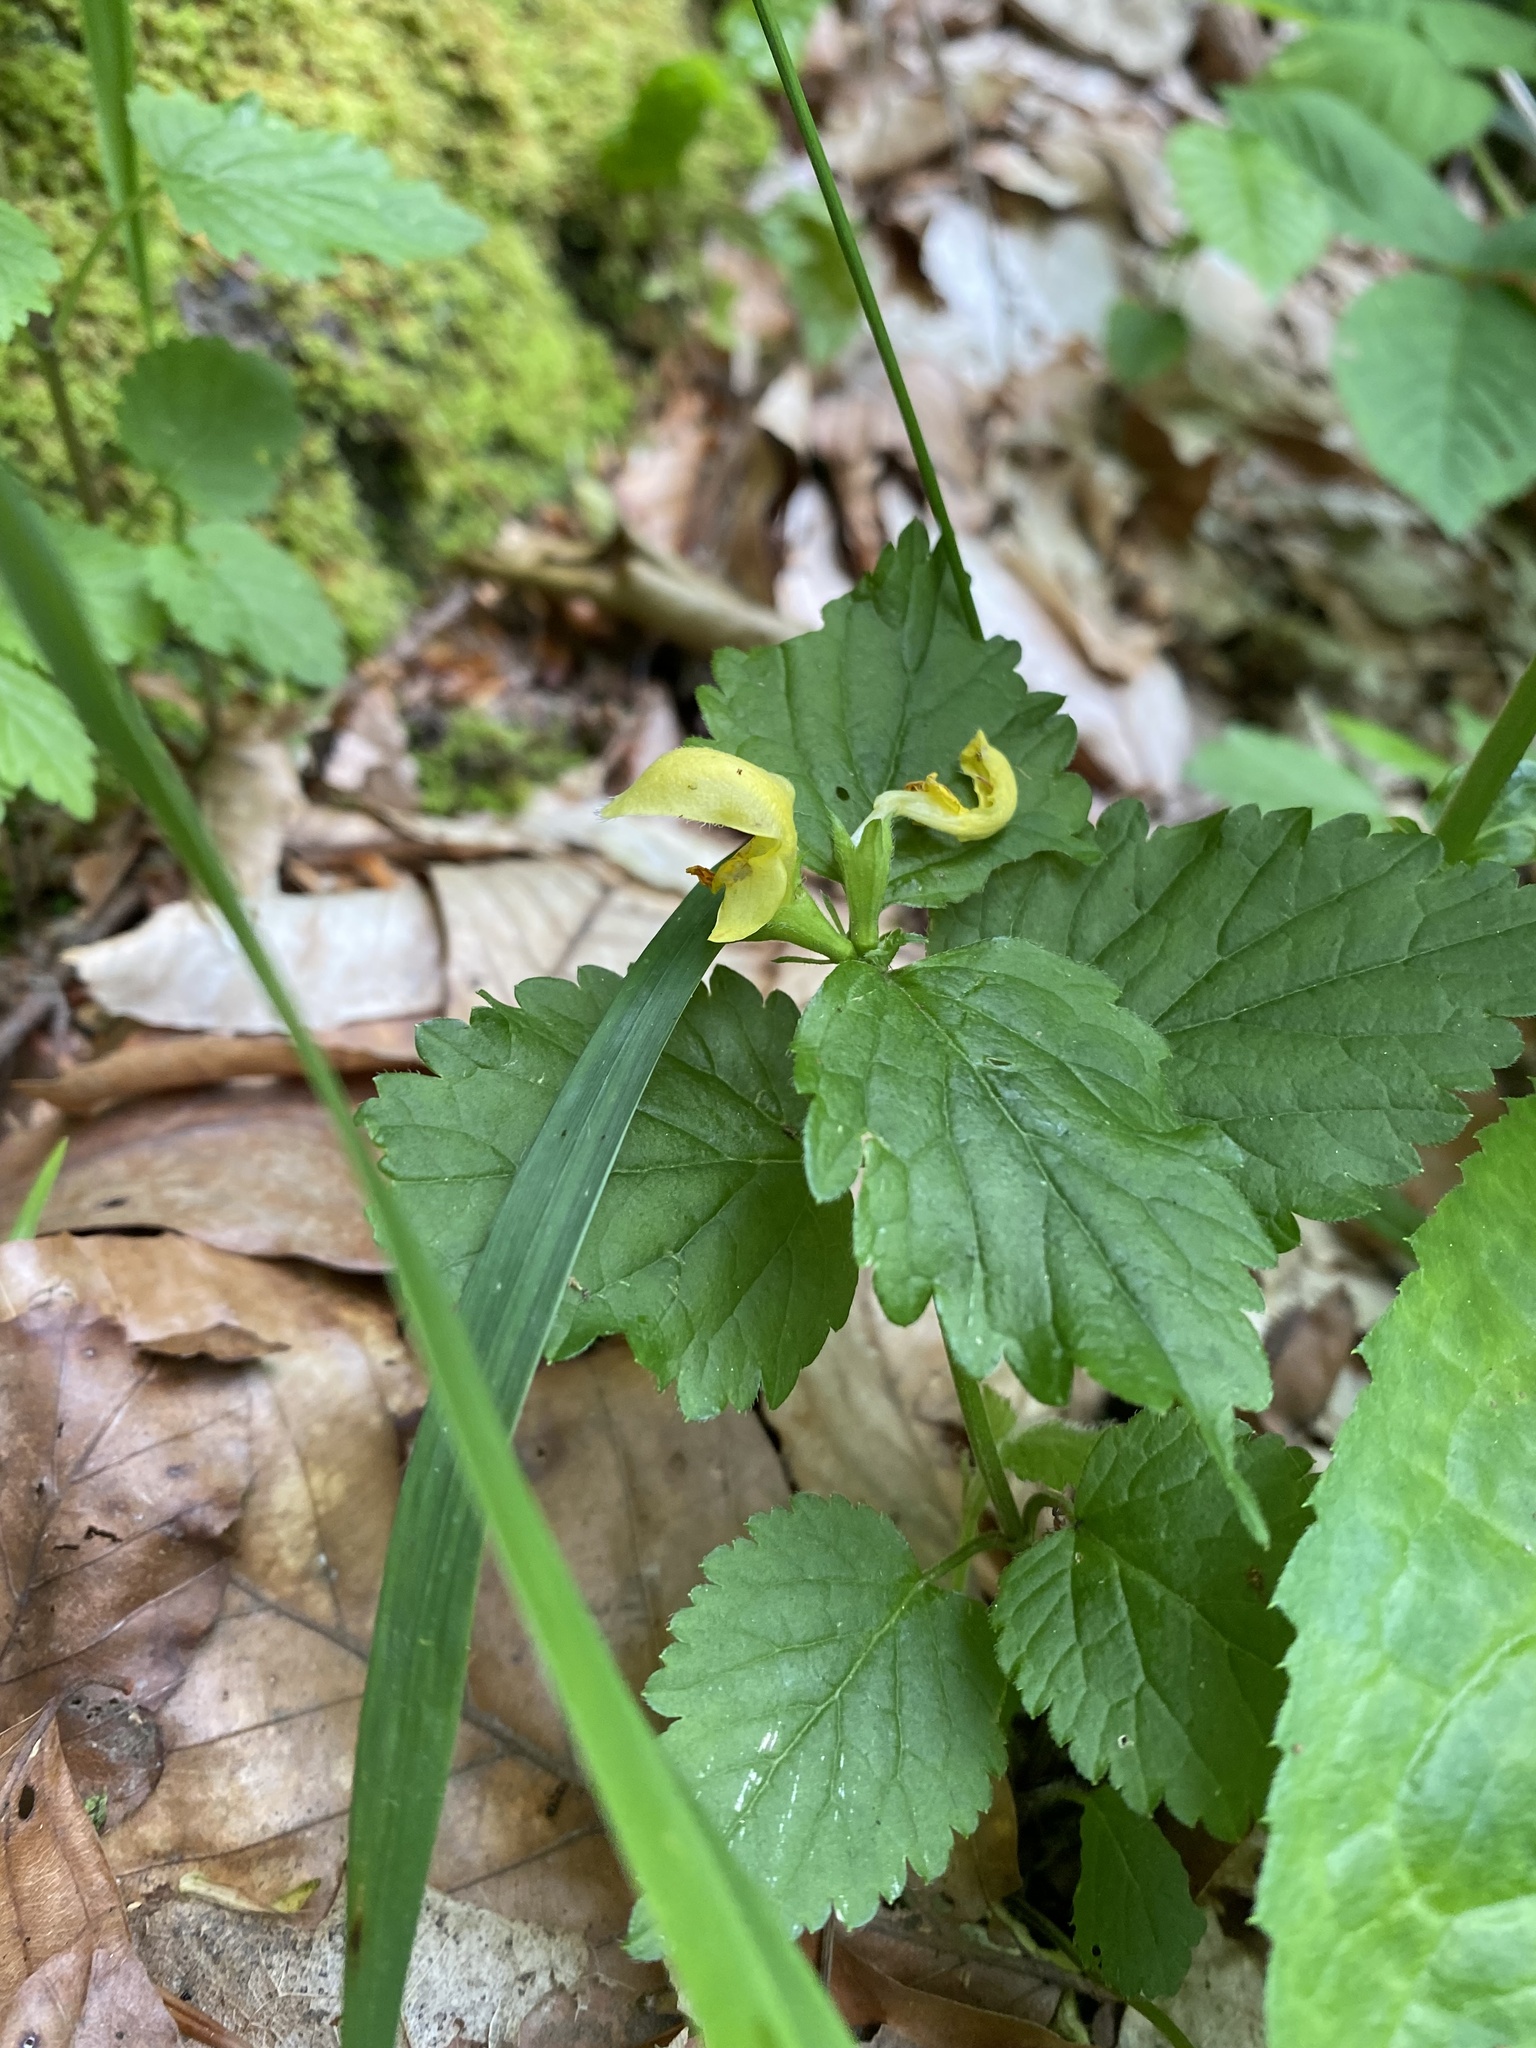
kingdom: Plantae
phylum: Tracheophyta
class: Magnoliopsida
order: Lamiales
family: Lamiaceae
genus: Lamium
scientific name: Lamium galeobdolon
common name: Yellow archangel
